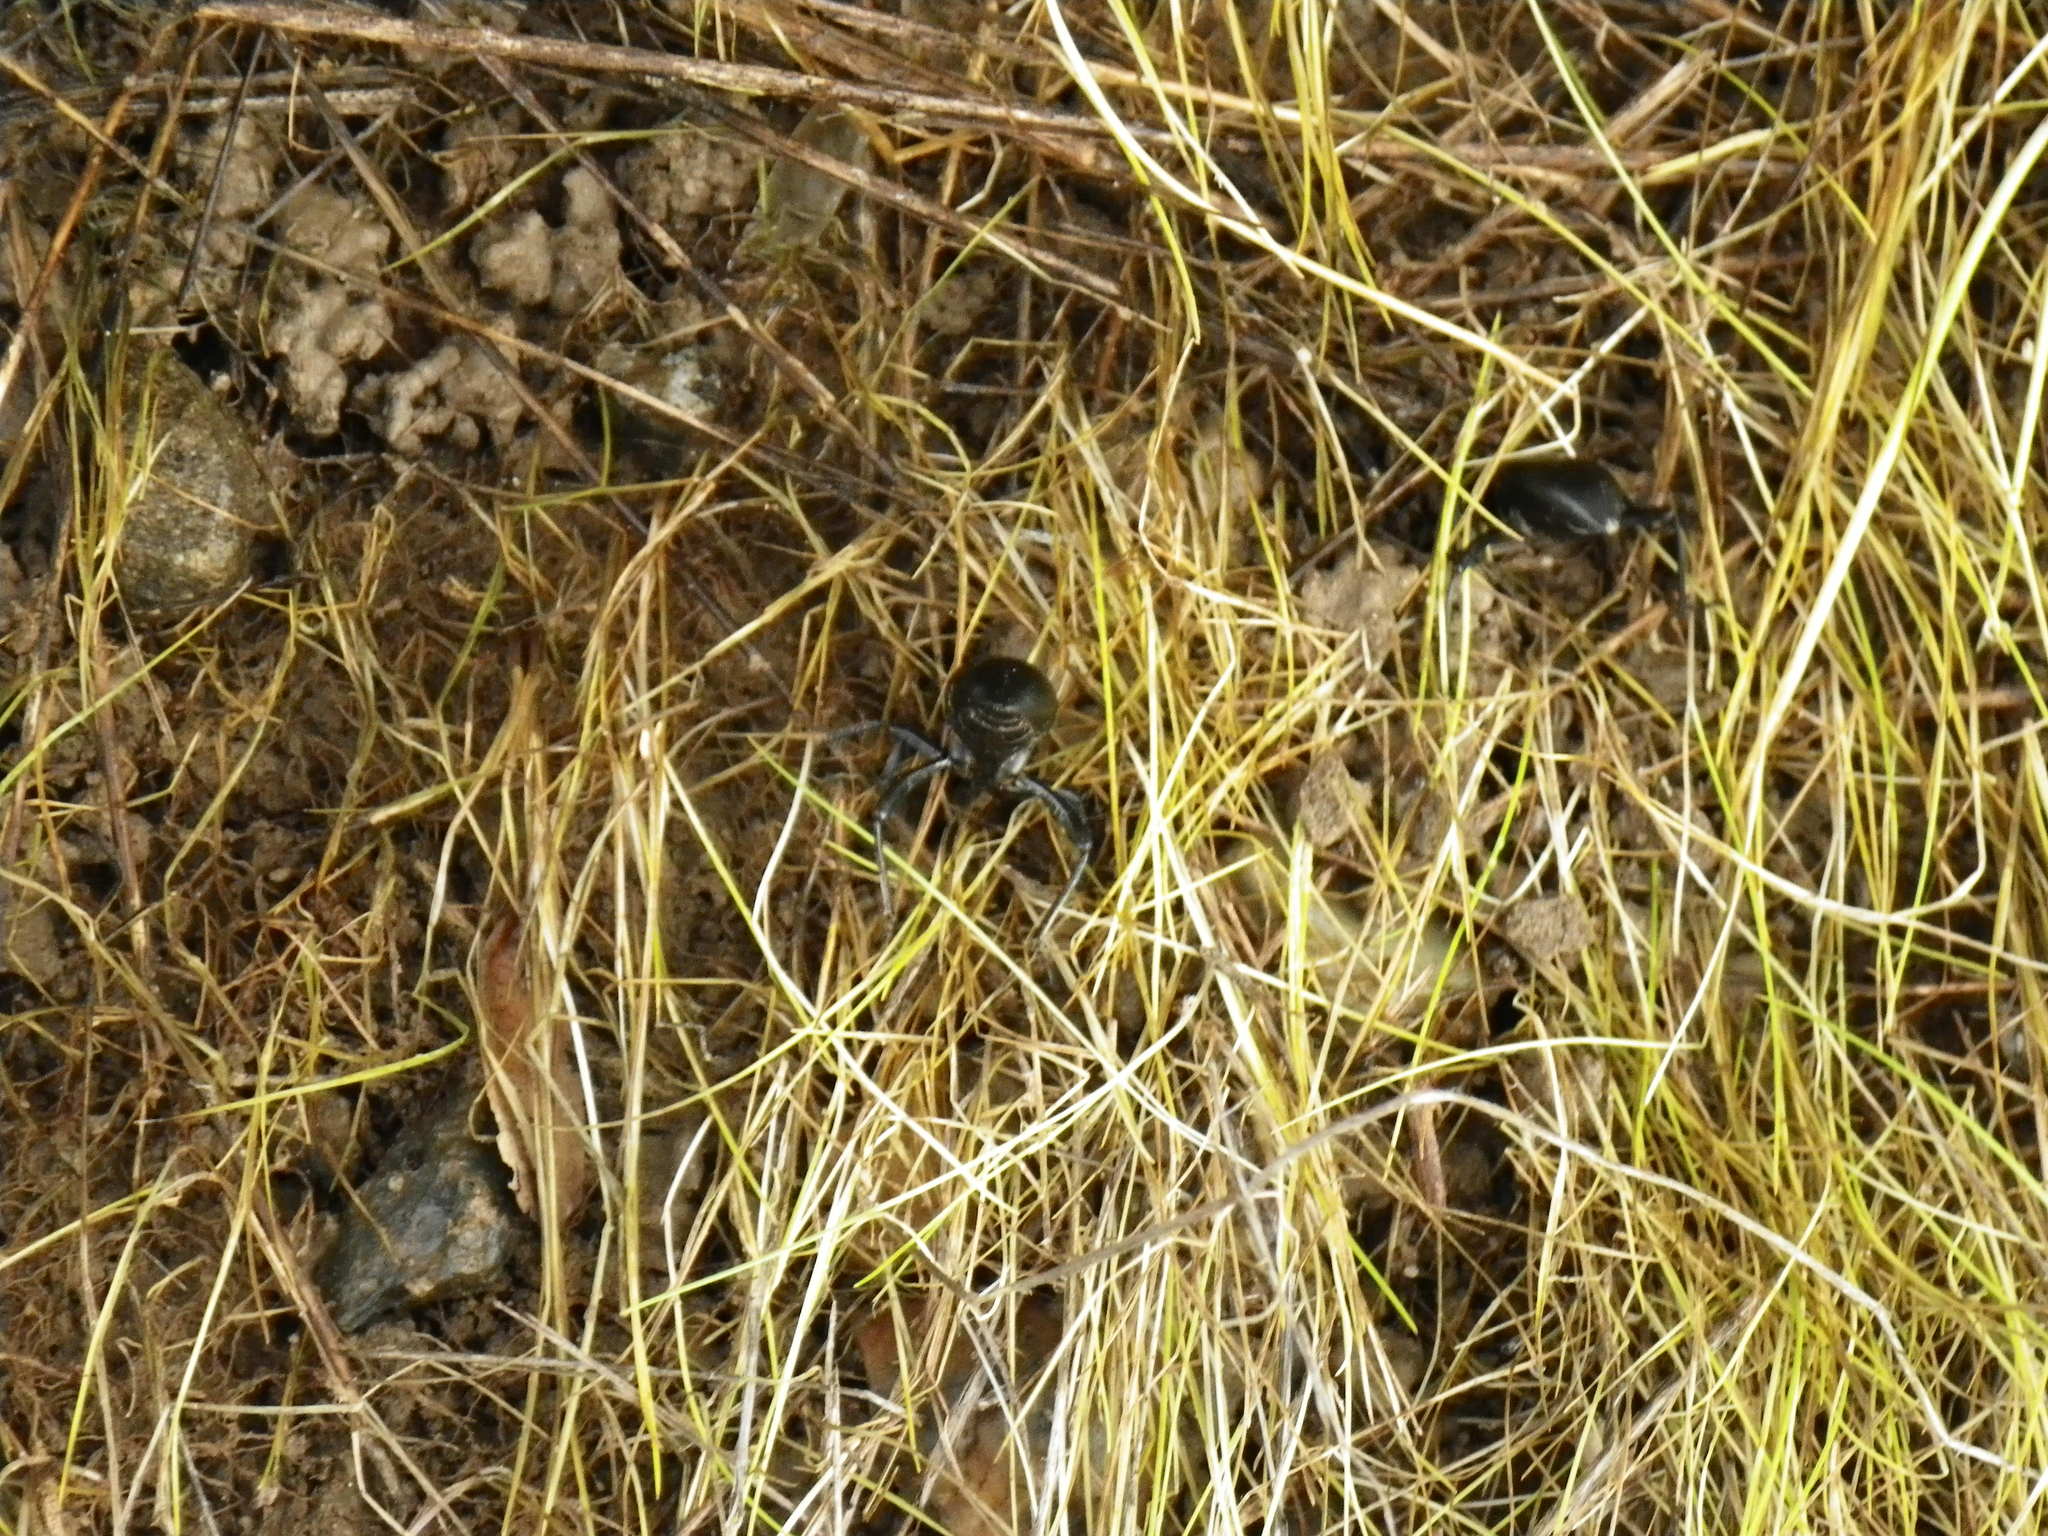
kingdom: Animalia
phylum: Arthropoda
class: Insecta
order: Coleoptera
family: Tenebrionidae
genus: Eleodes
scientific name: Eleodes dentipes
